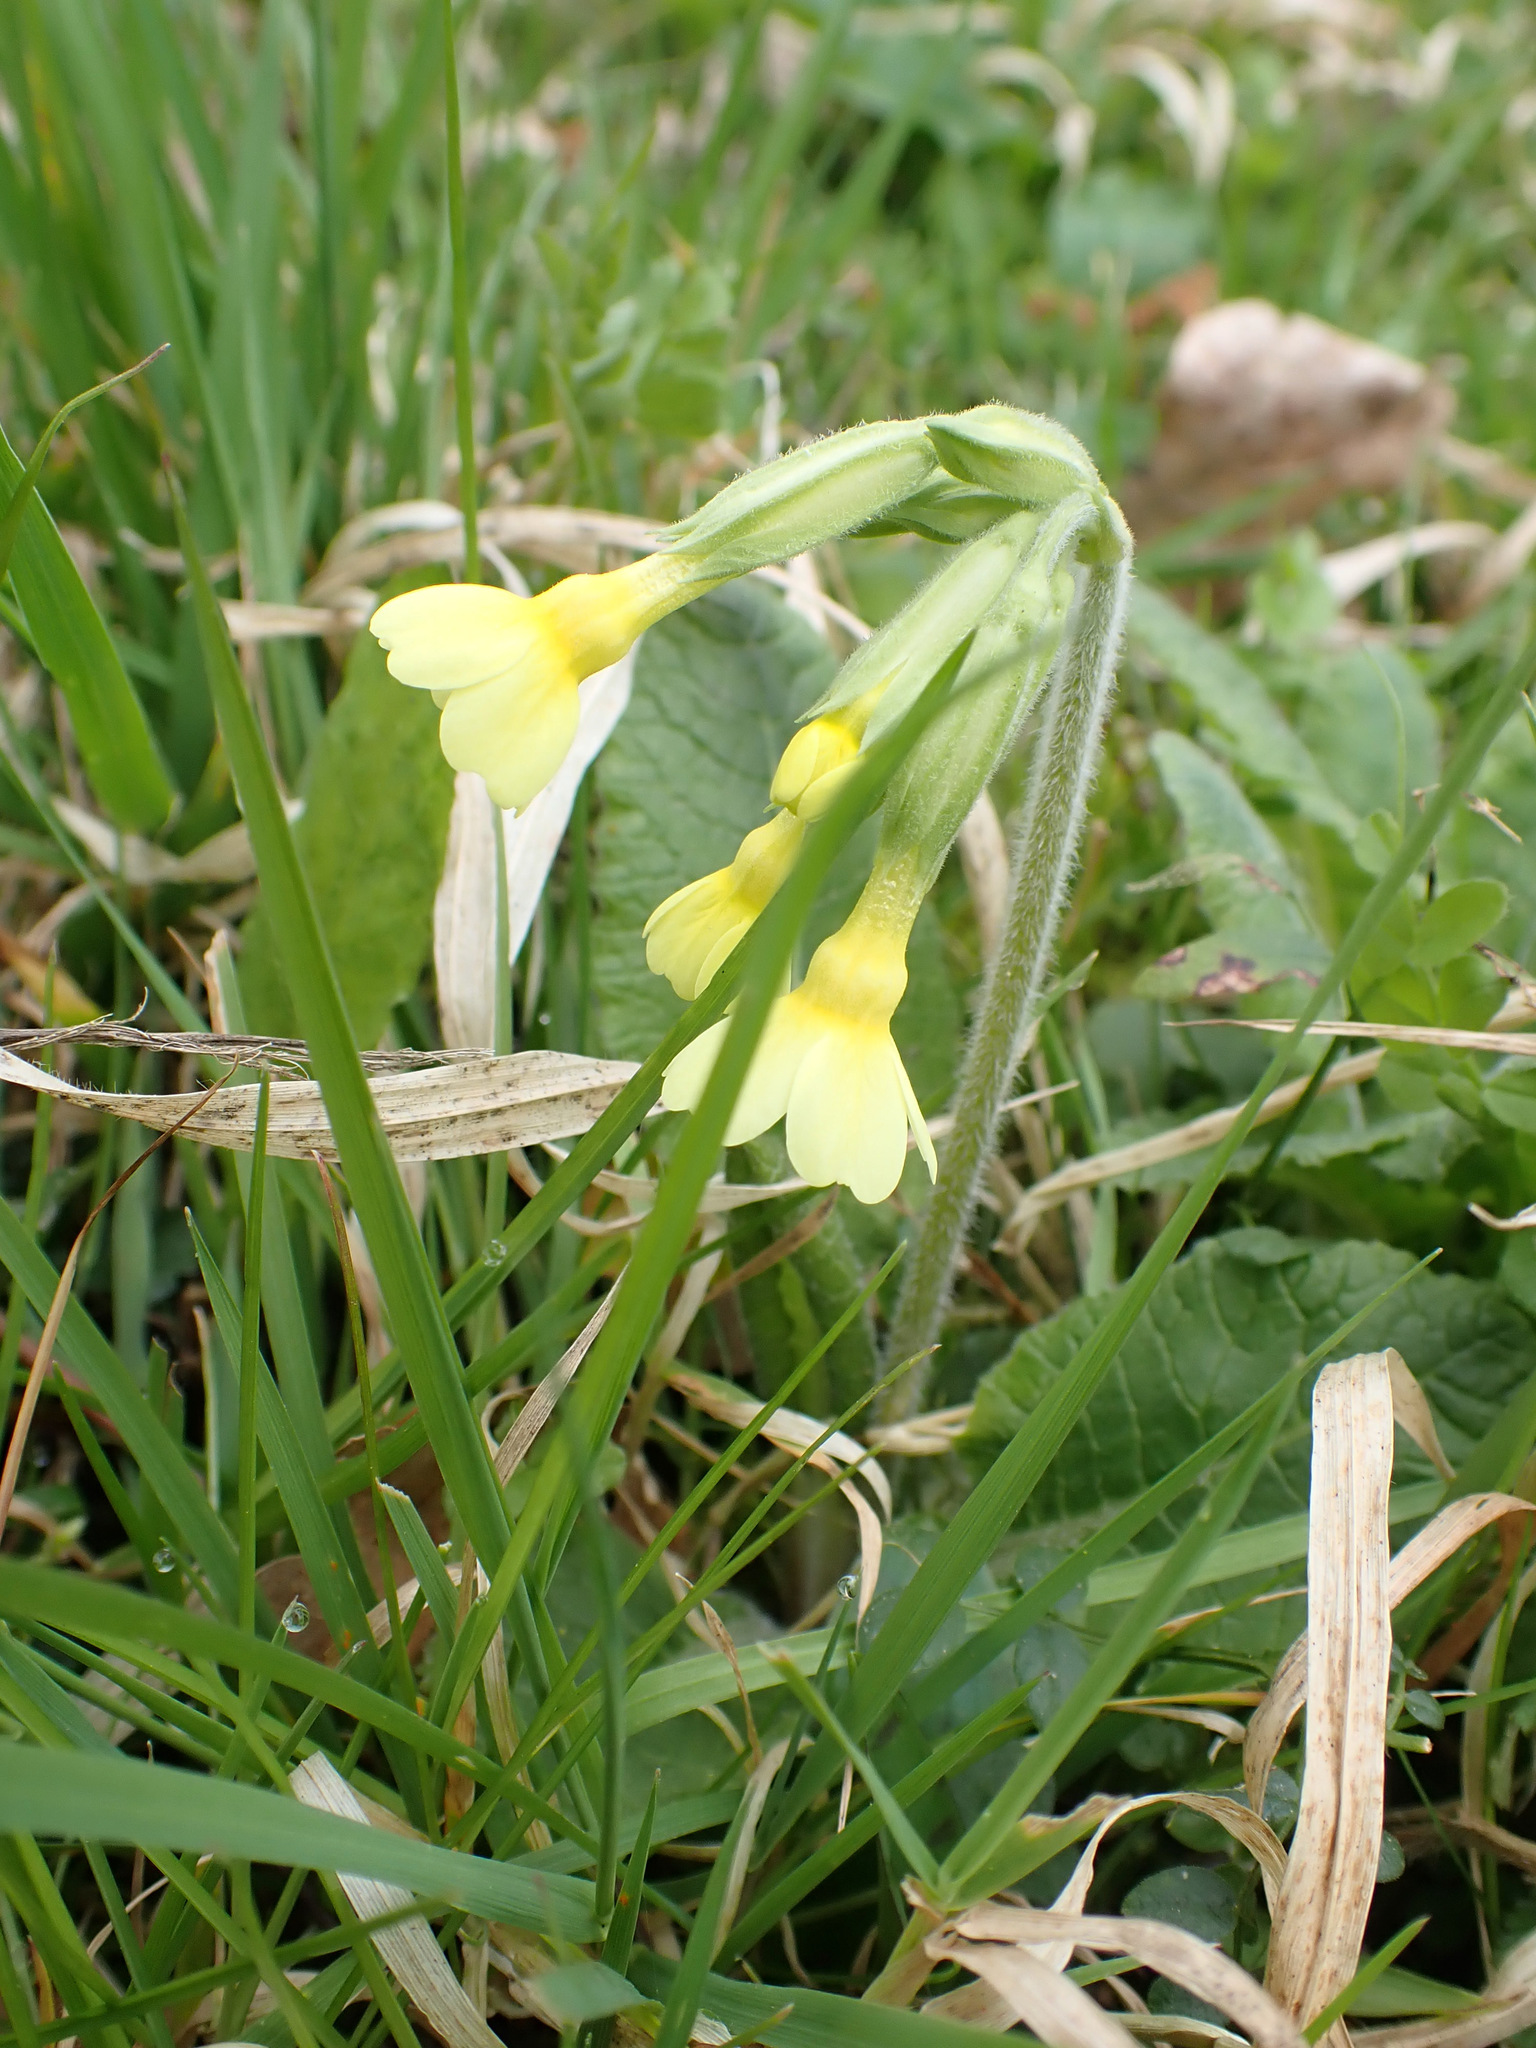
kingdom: Plantae
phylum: Tracheophyta
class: Magnoliopsida
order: Ericales
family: Primulaceae
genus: Primula
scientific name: Primula elatior
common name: Oxlip
